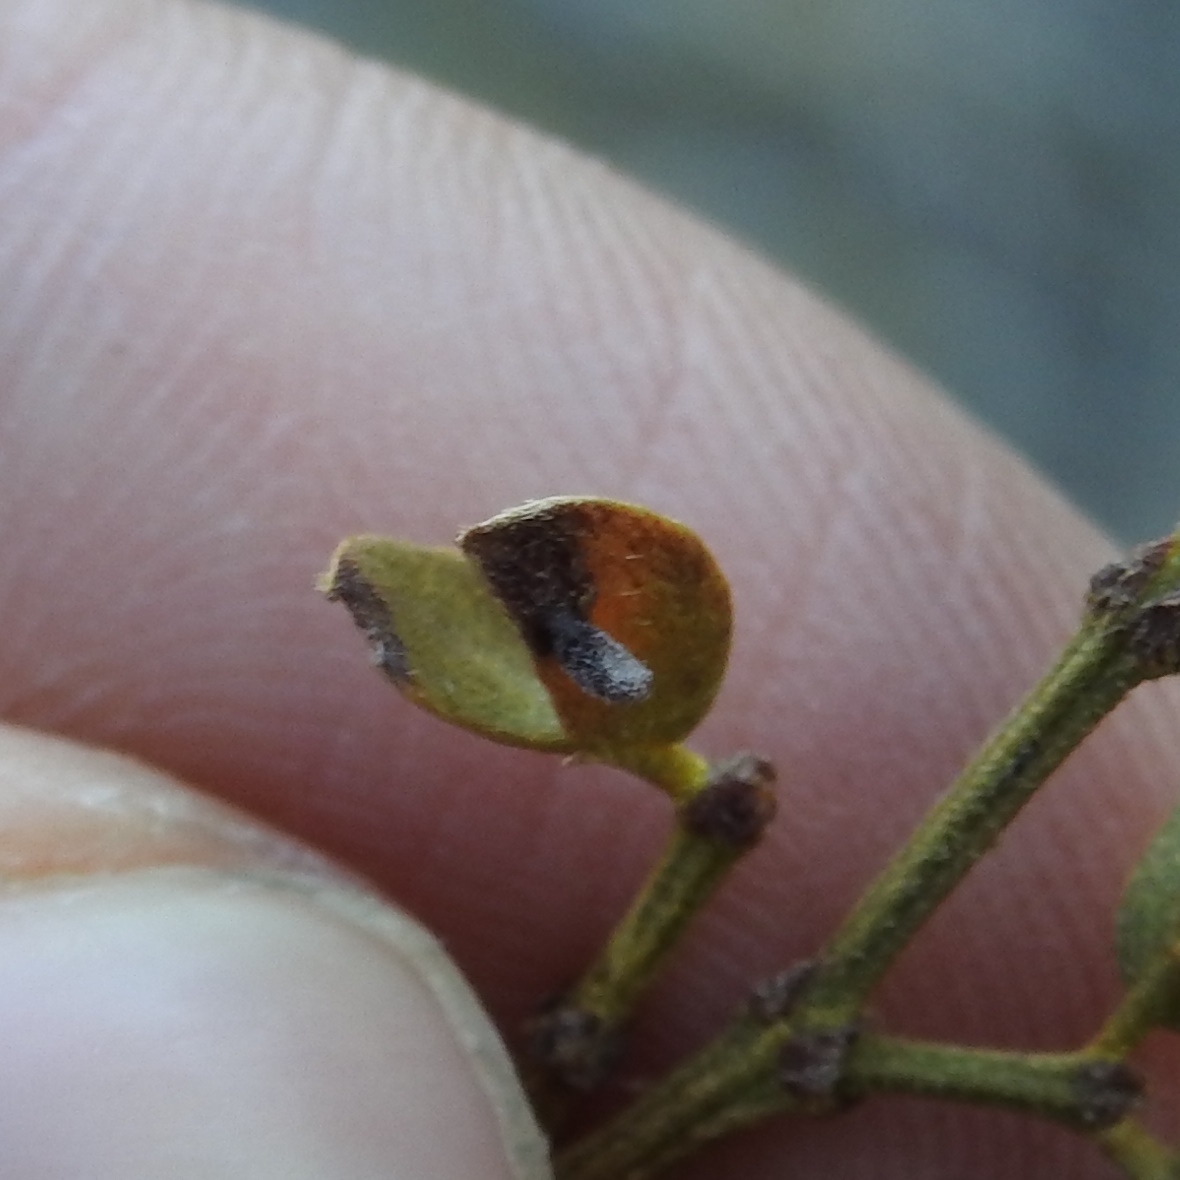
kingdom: Animalia
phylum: Arthropoda
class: Insecta
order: Diptera
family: Cecidomyiidae
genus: Asphondylia
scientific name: Asphondylia pilosa
